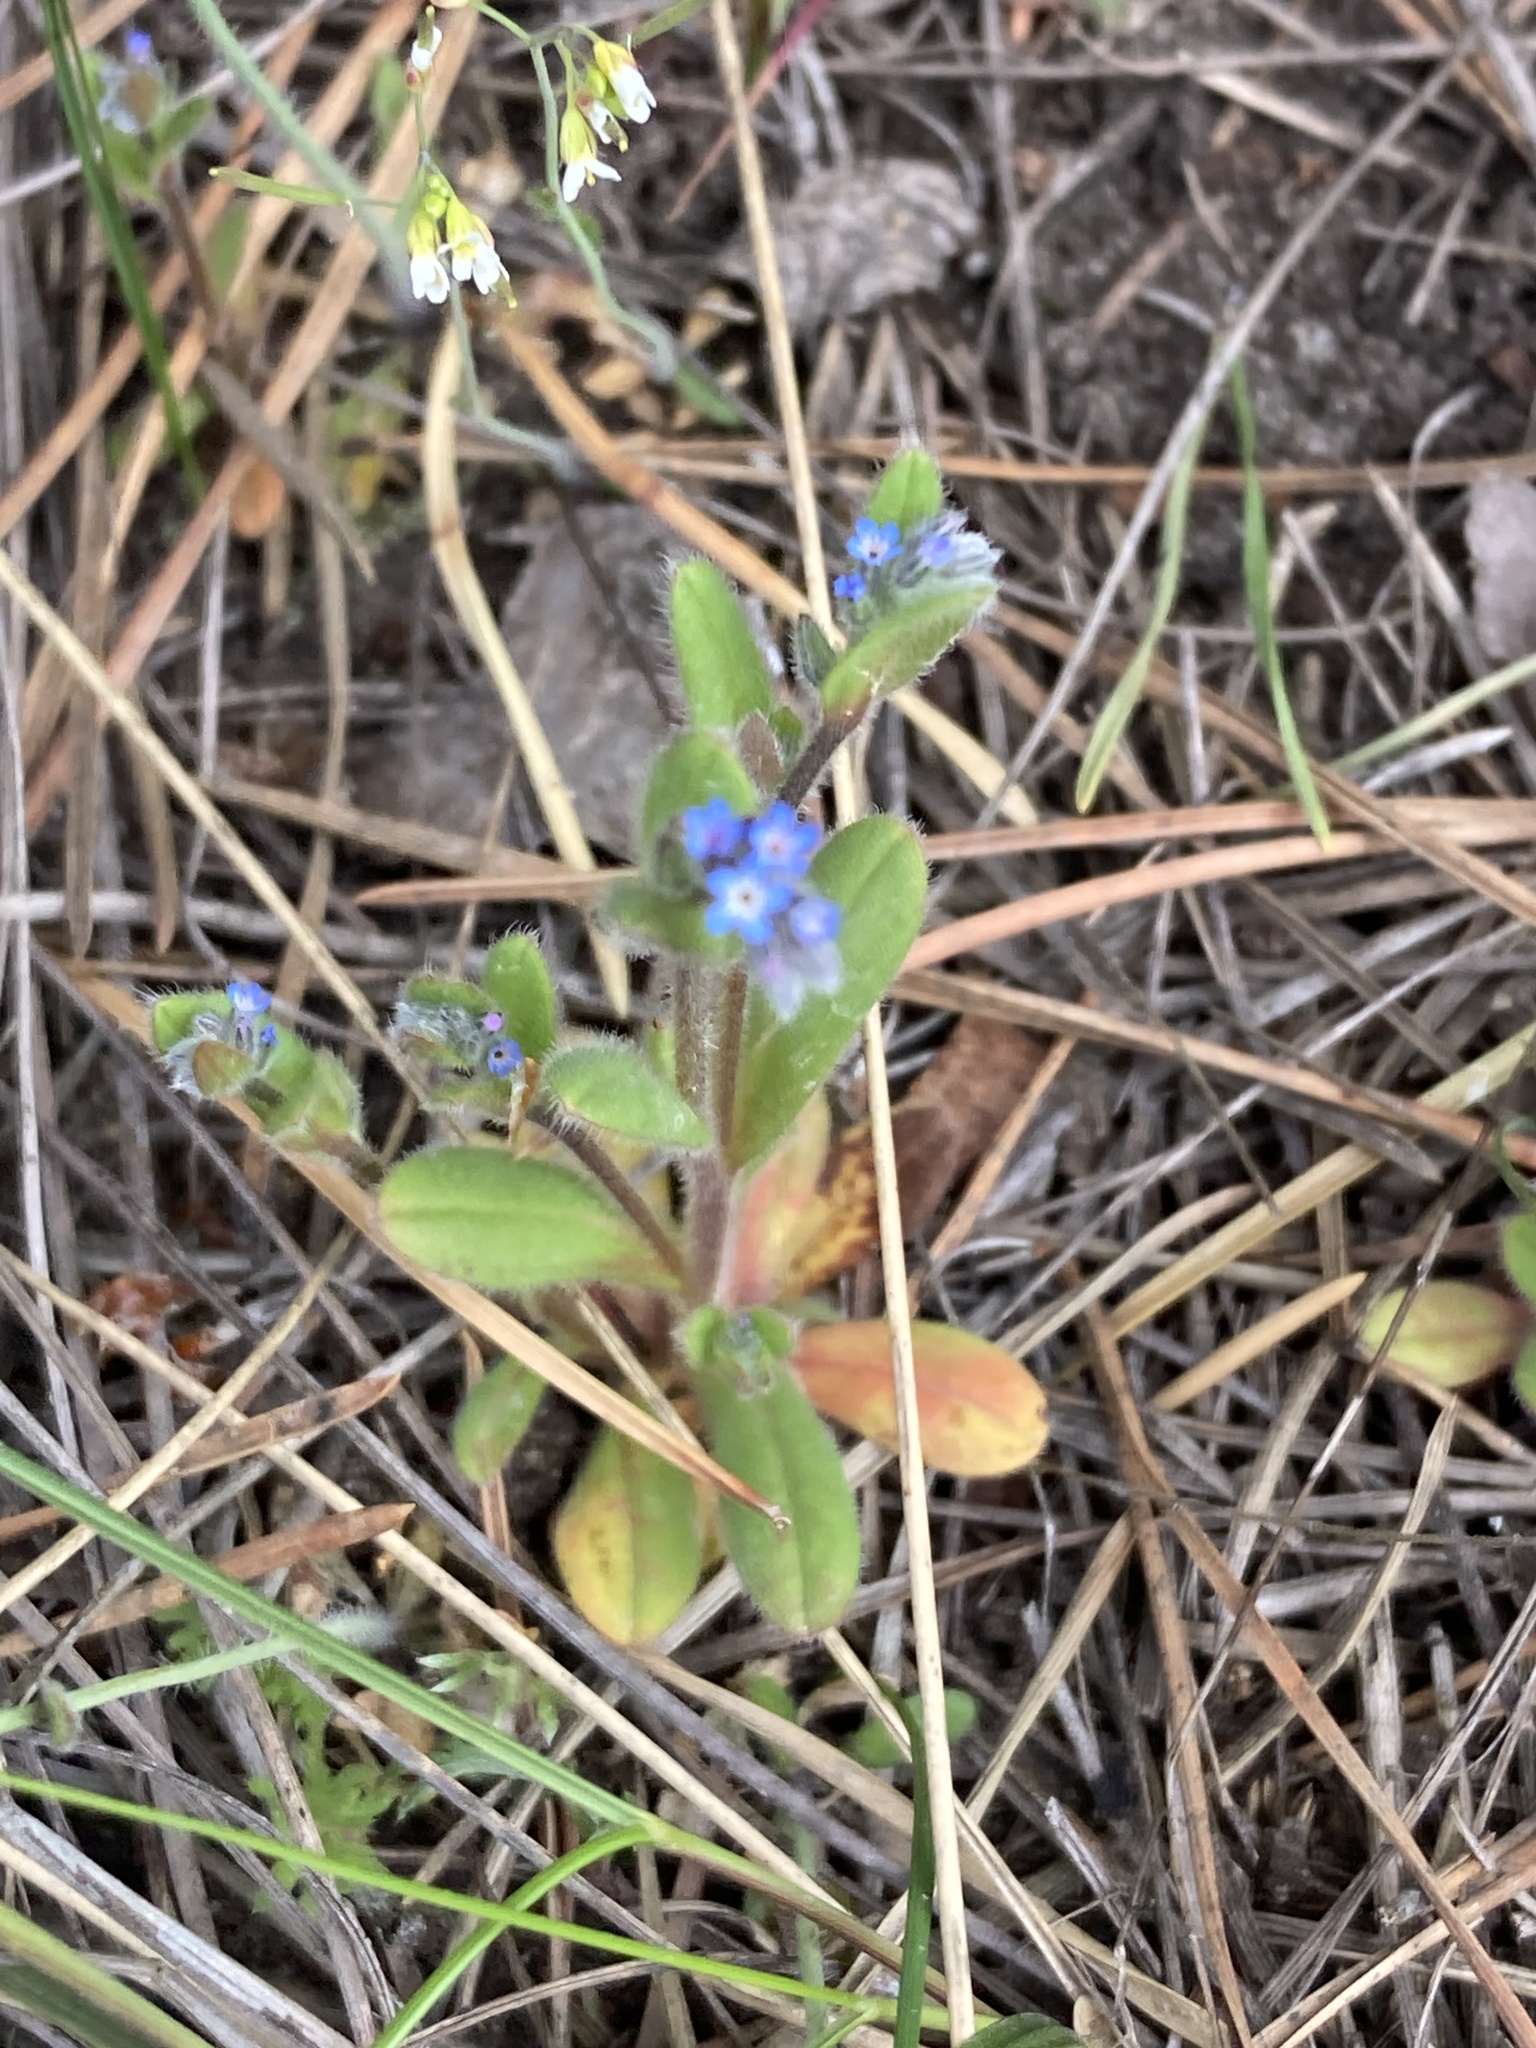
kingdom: Plantae
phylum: Tracheophyta
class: Magnoliopsida
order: Boraginales
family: Boraginaceae
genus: Myosotis
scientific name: Myosotis stricta
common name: Strict forget-me-not
